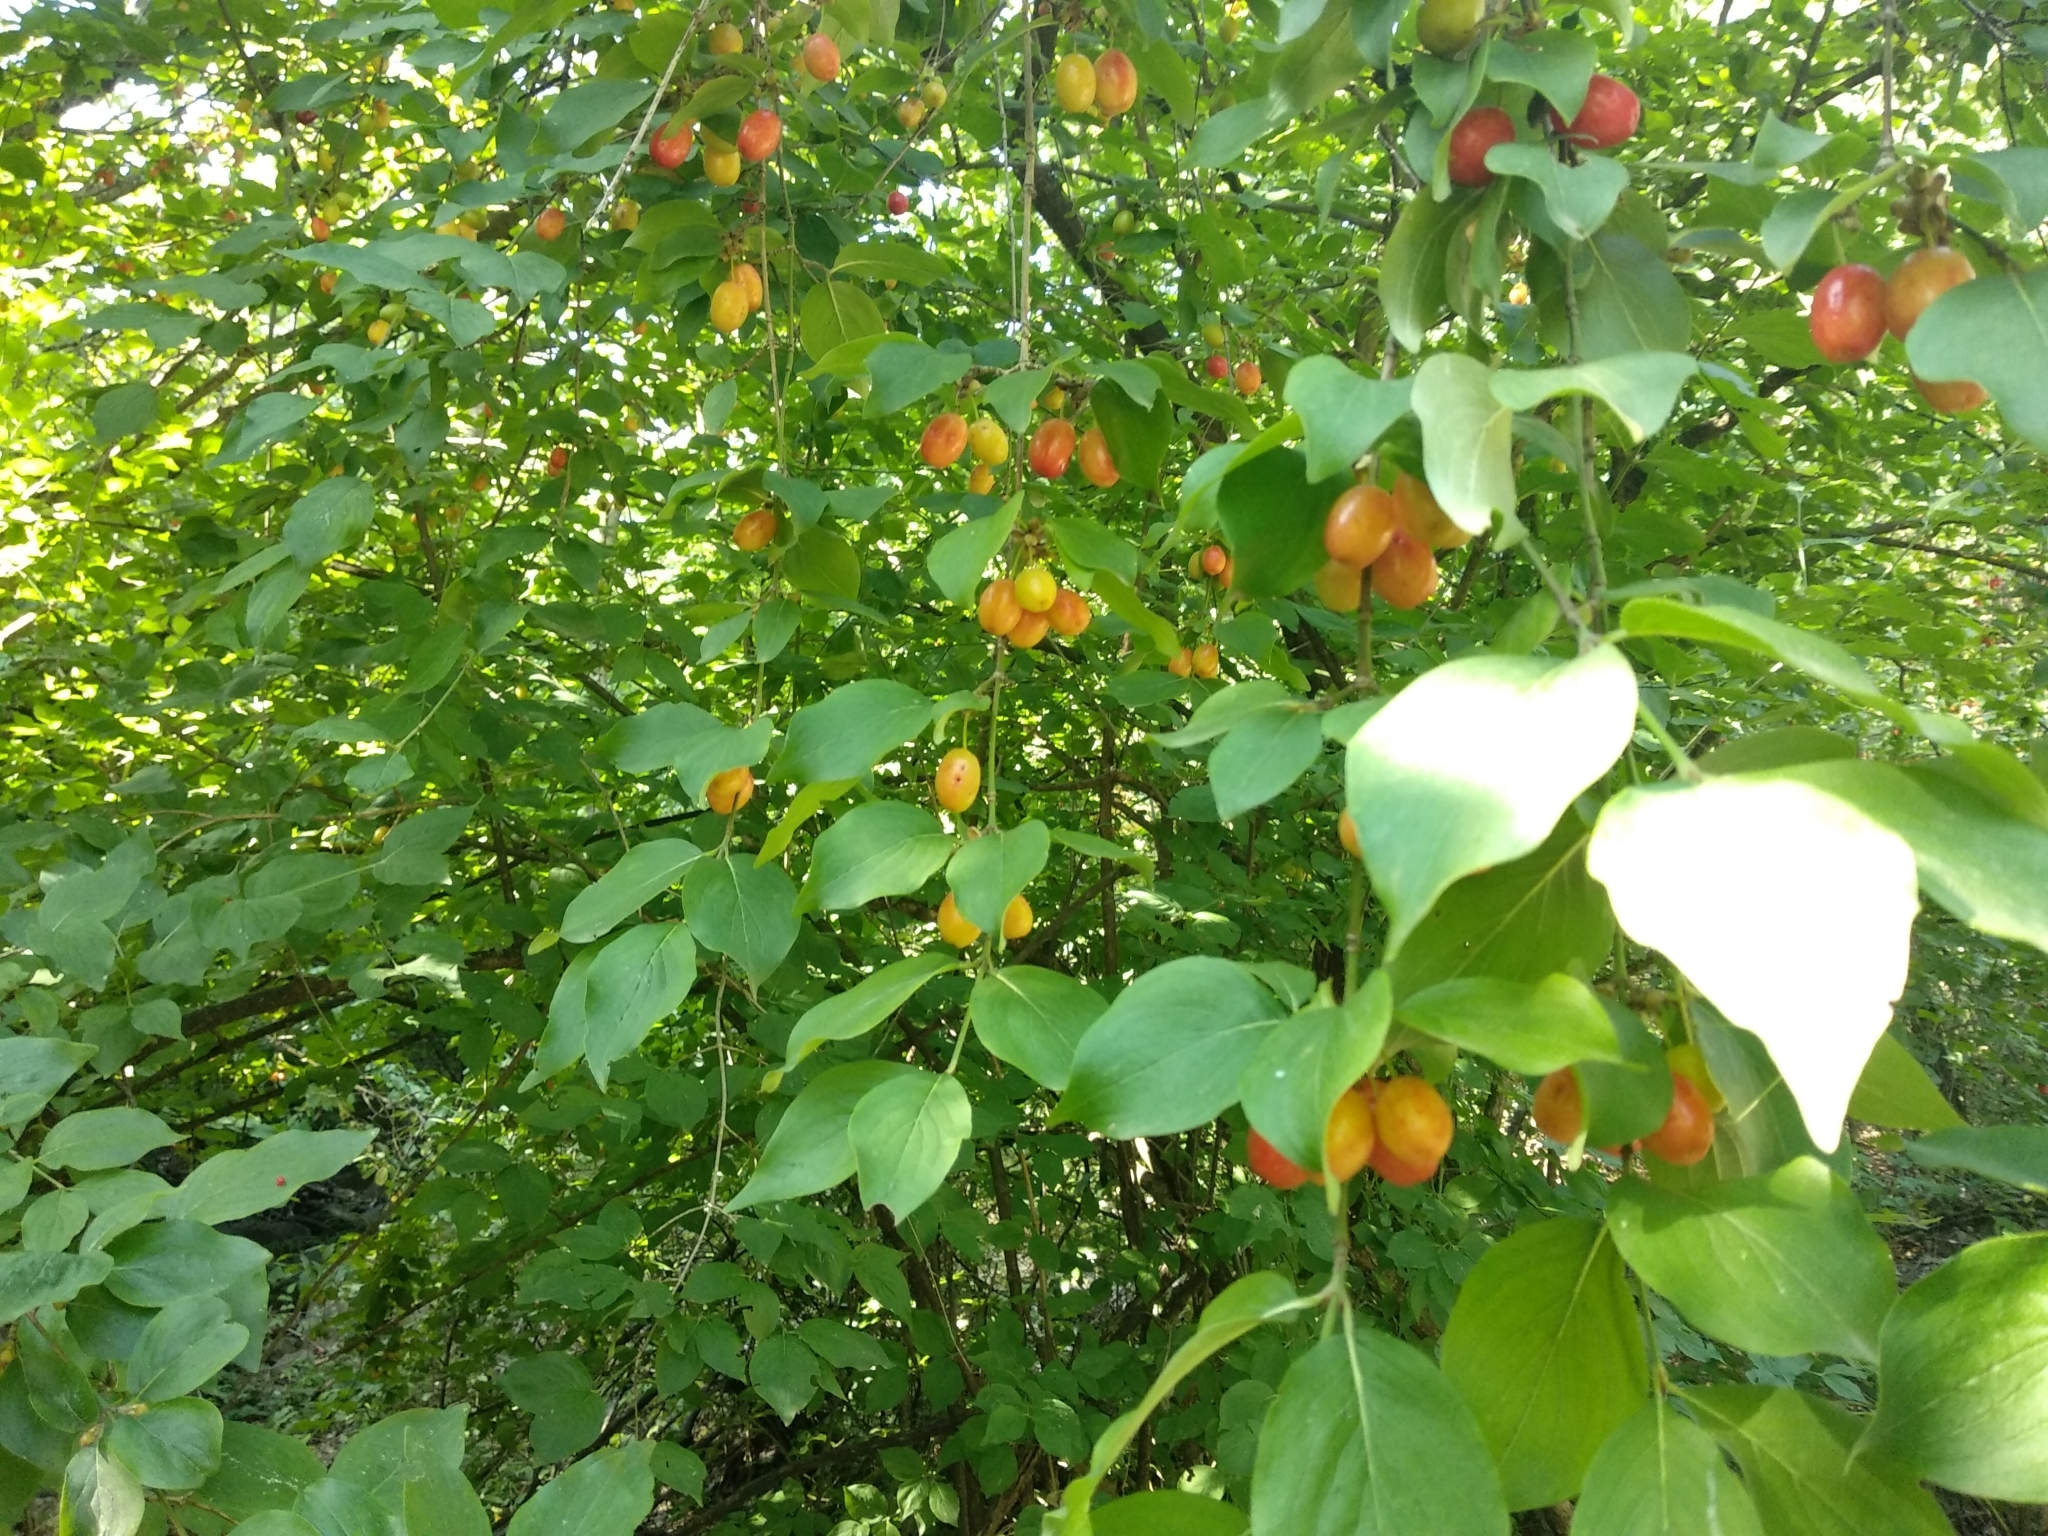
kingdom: Plantae
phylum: Tracheophyta
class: Magnoliopsida
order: Cornales
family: Cornaceae
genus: Cornus
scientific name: Cornus mas
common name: Cornelian-cherry
